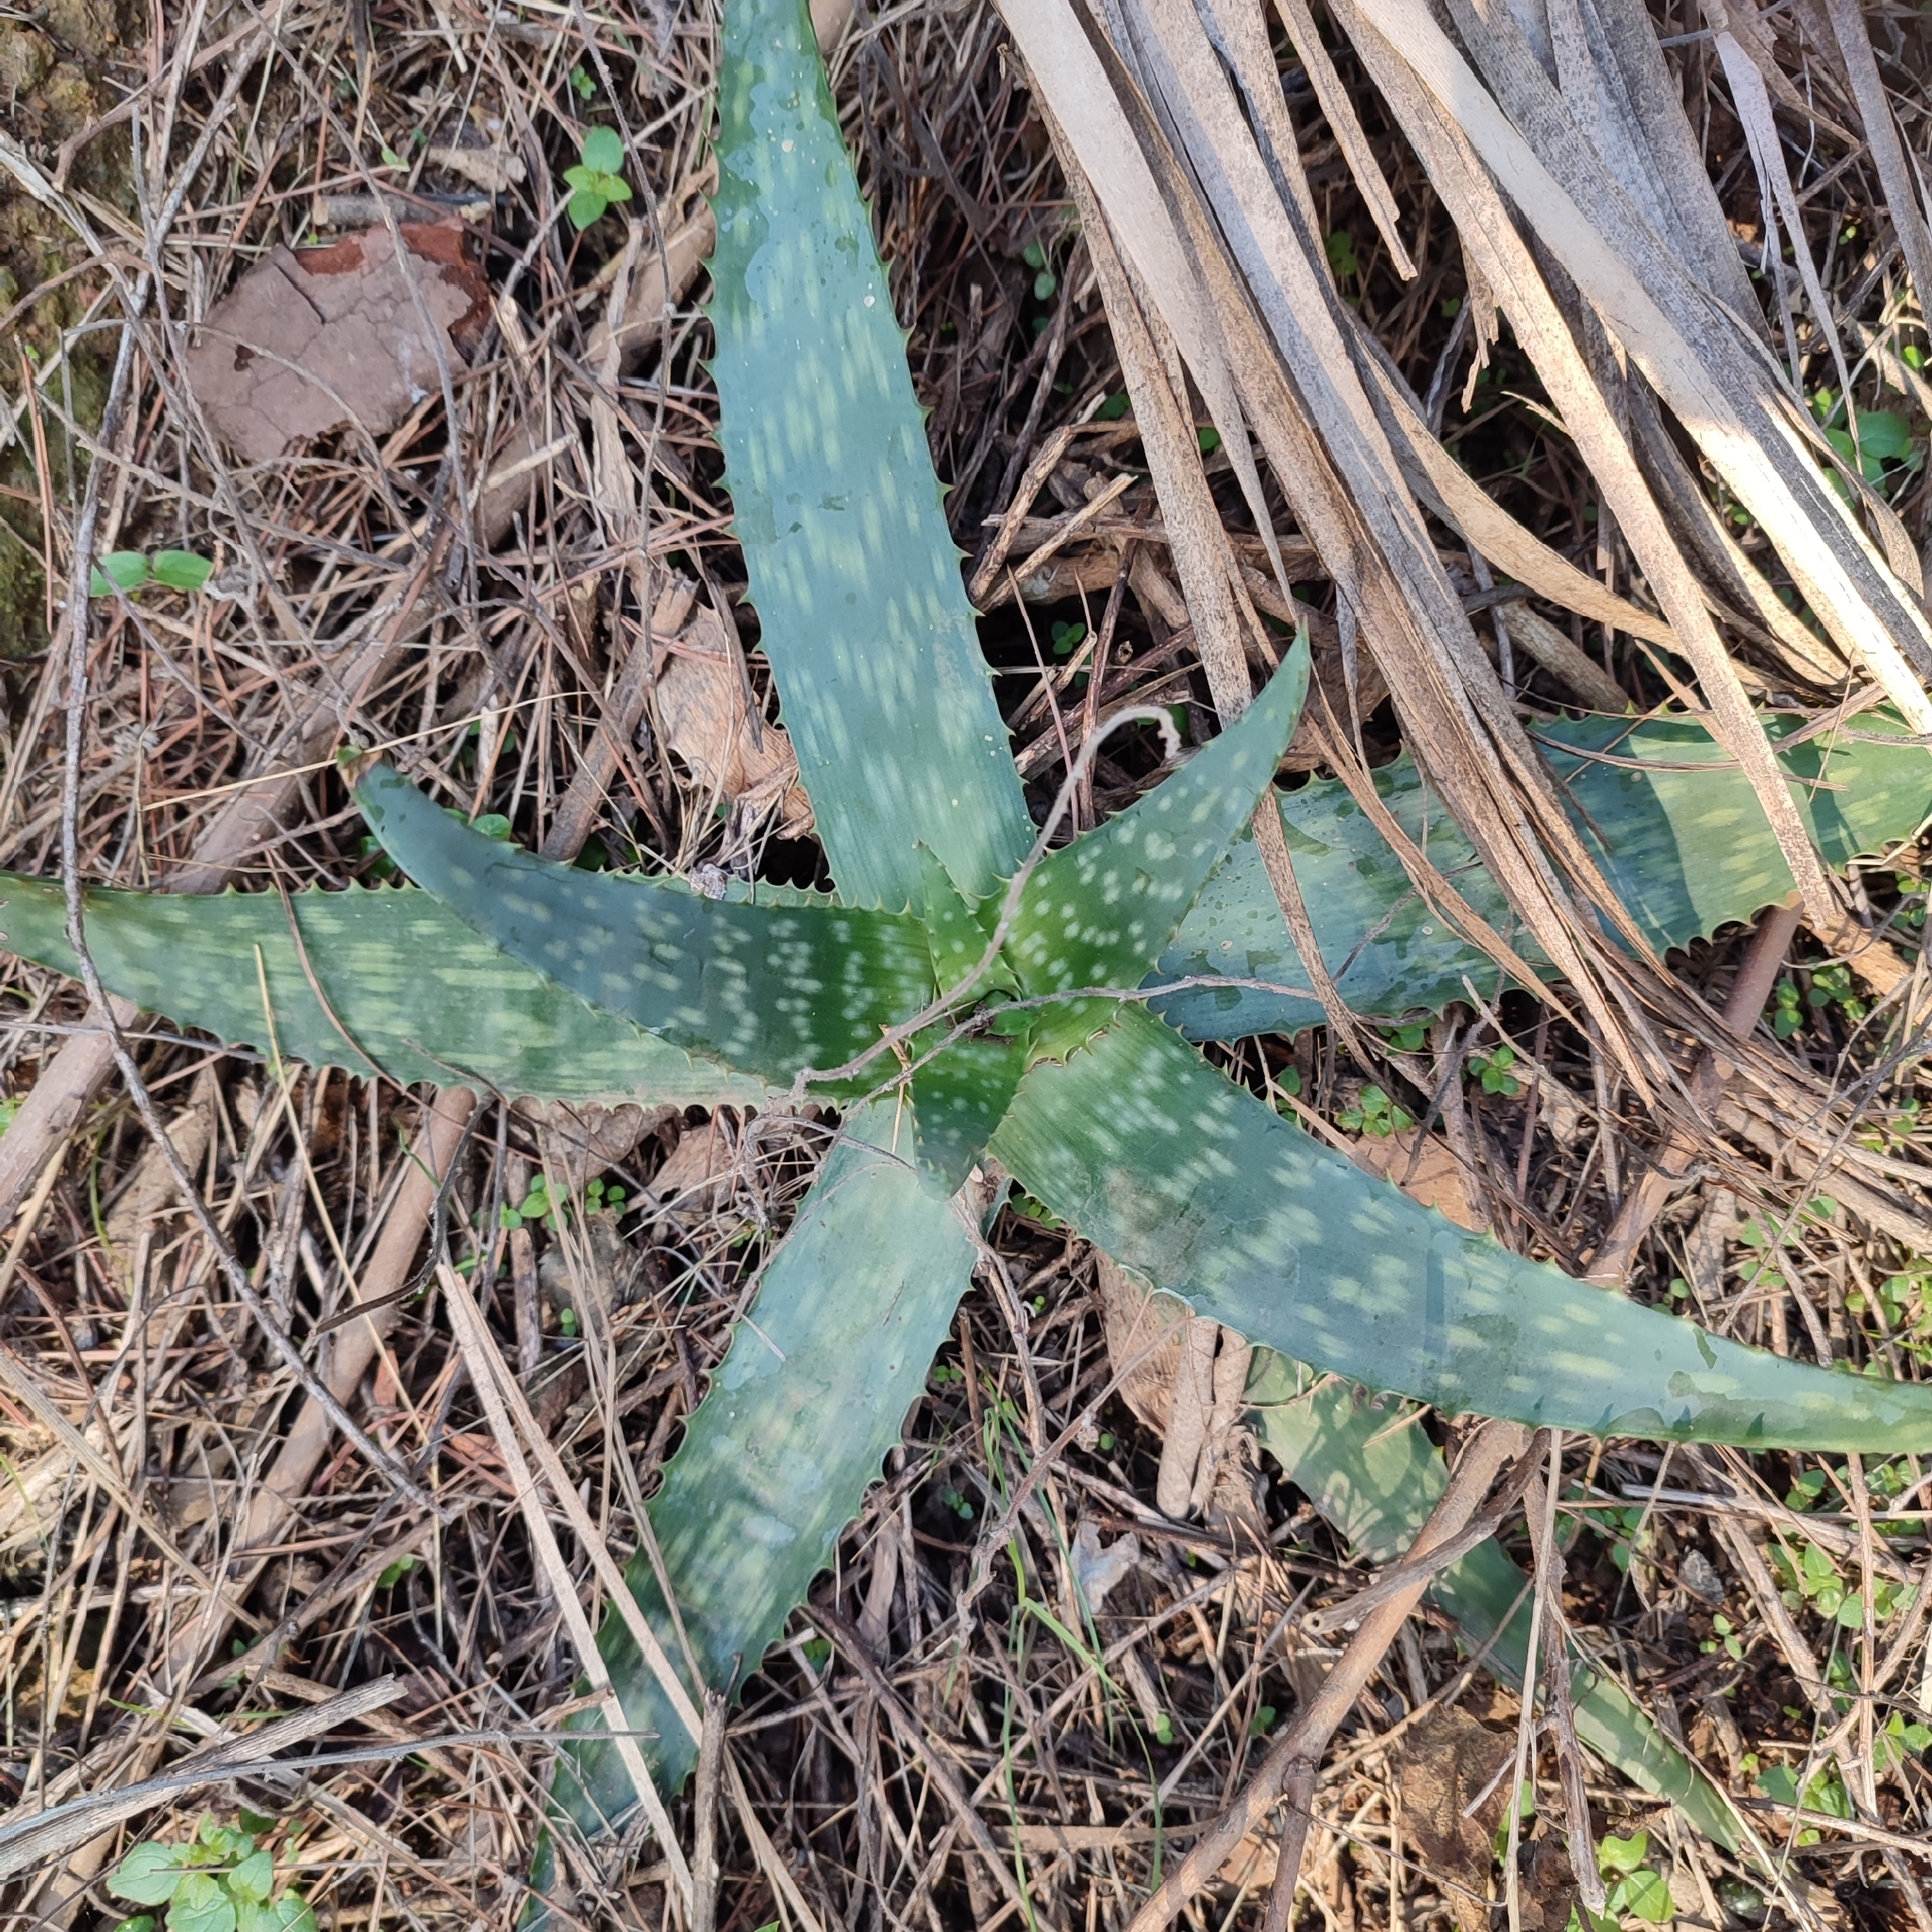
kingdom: Plantae
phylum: Tracheophyta
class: Liliopsida
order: Asparagales
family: Asphodelaceae
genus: Aloe
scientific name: Aloe maculata
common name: Broadleaf aloe
